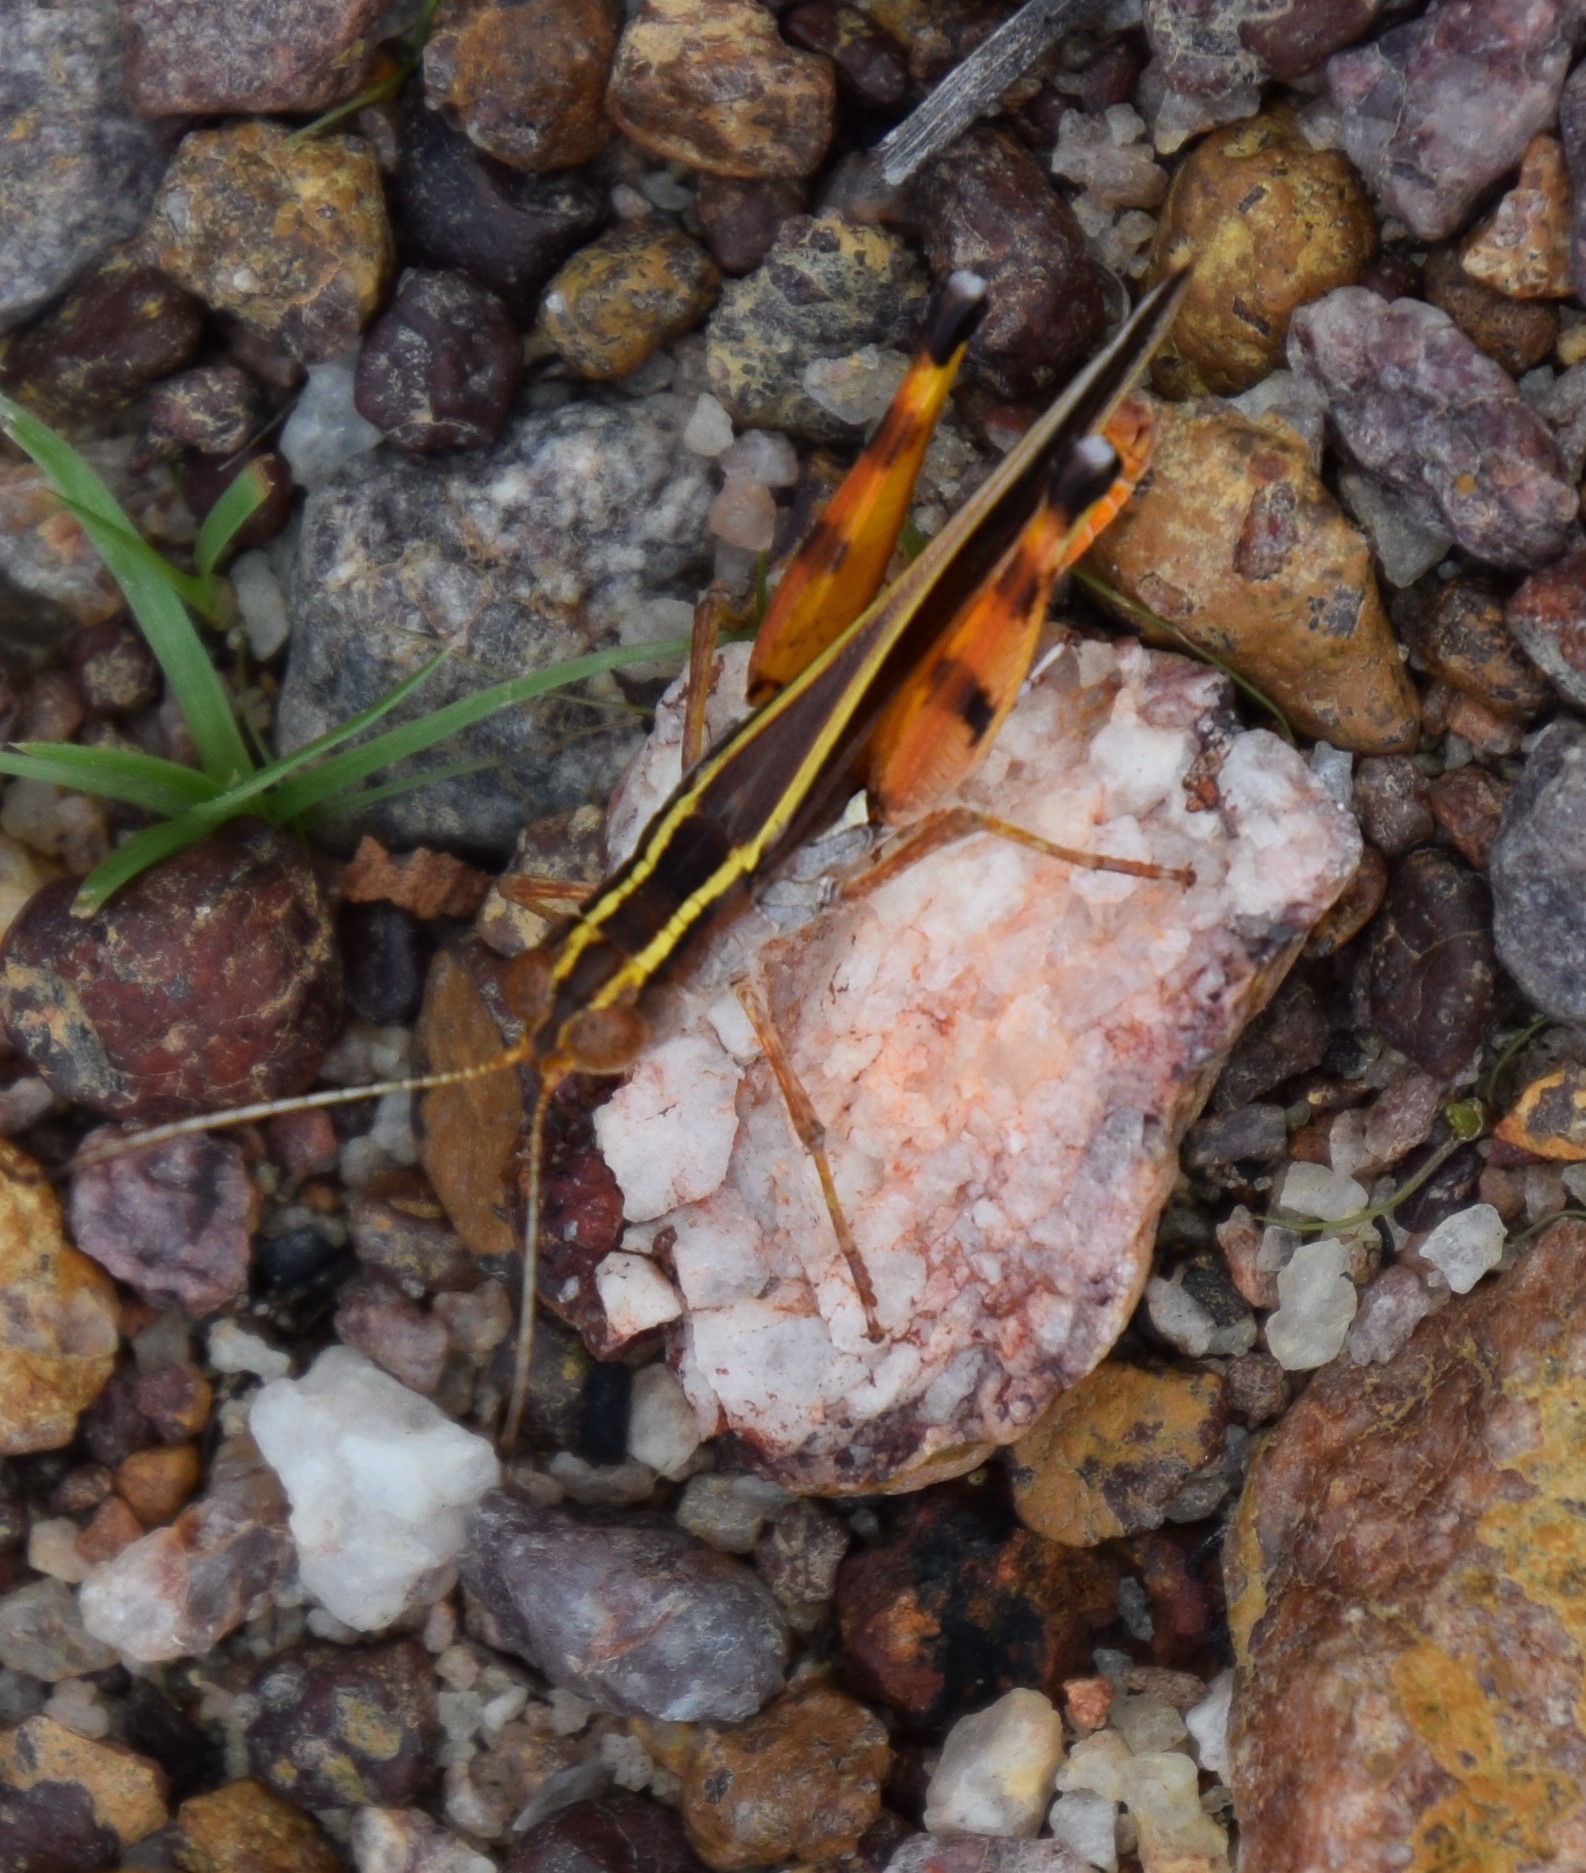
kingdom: Animalia
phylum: Arthropoda
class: Insecta
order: Orthoptera
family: Acrididae
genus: Macrocara
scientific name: Macrocara conglobata
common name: Rainbow grasshopper
